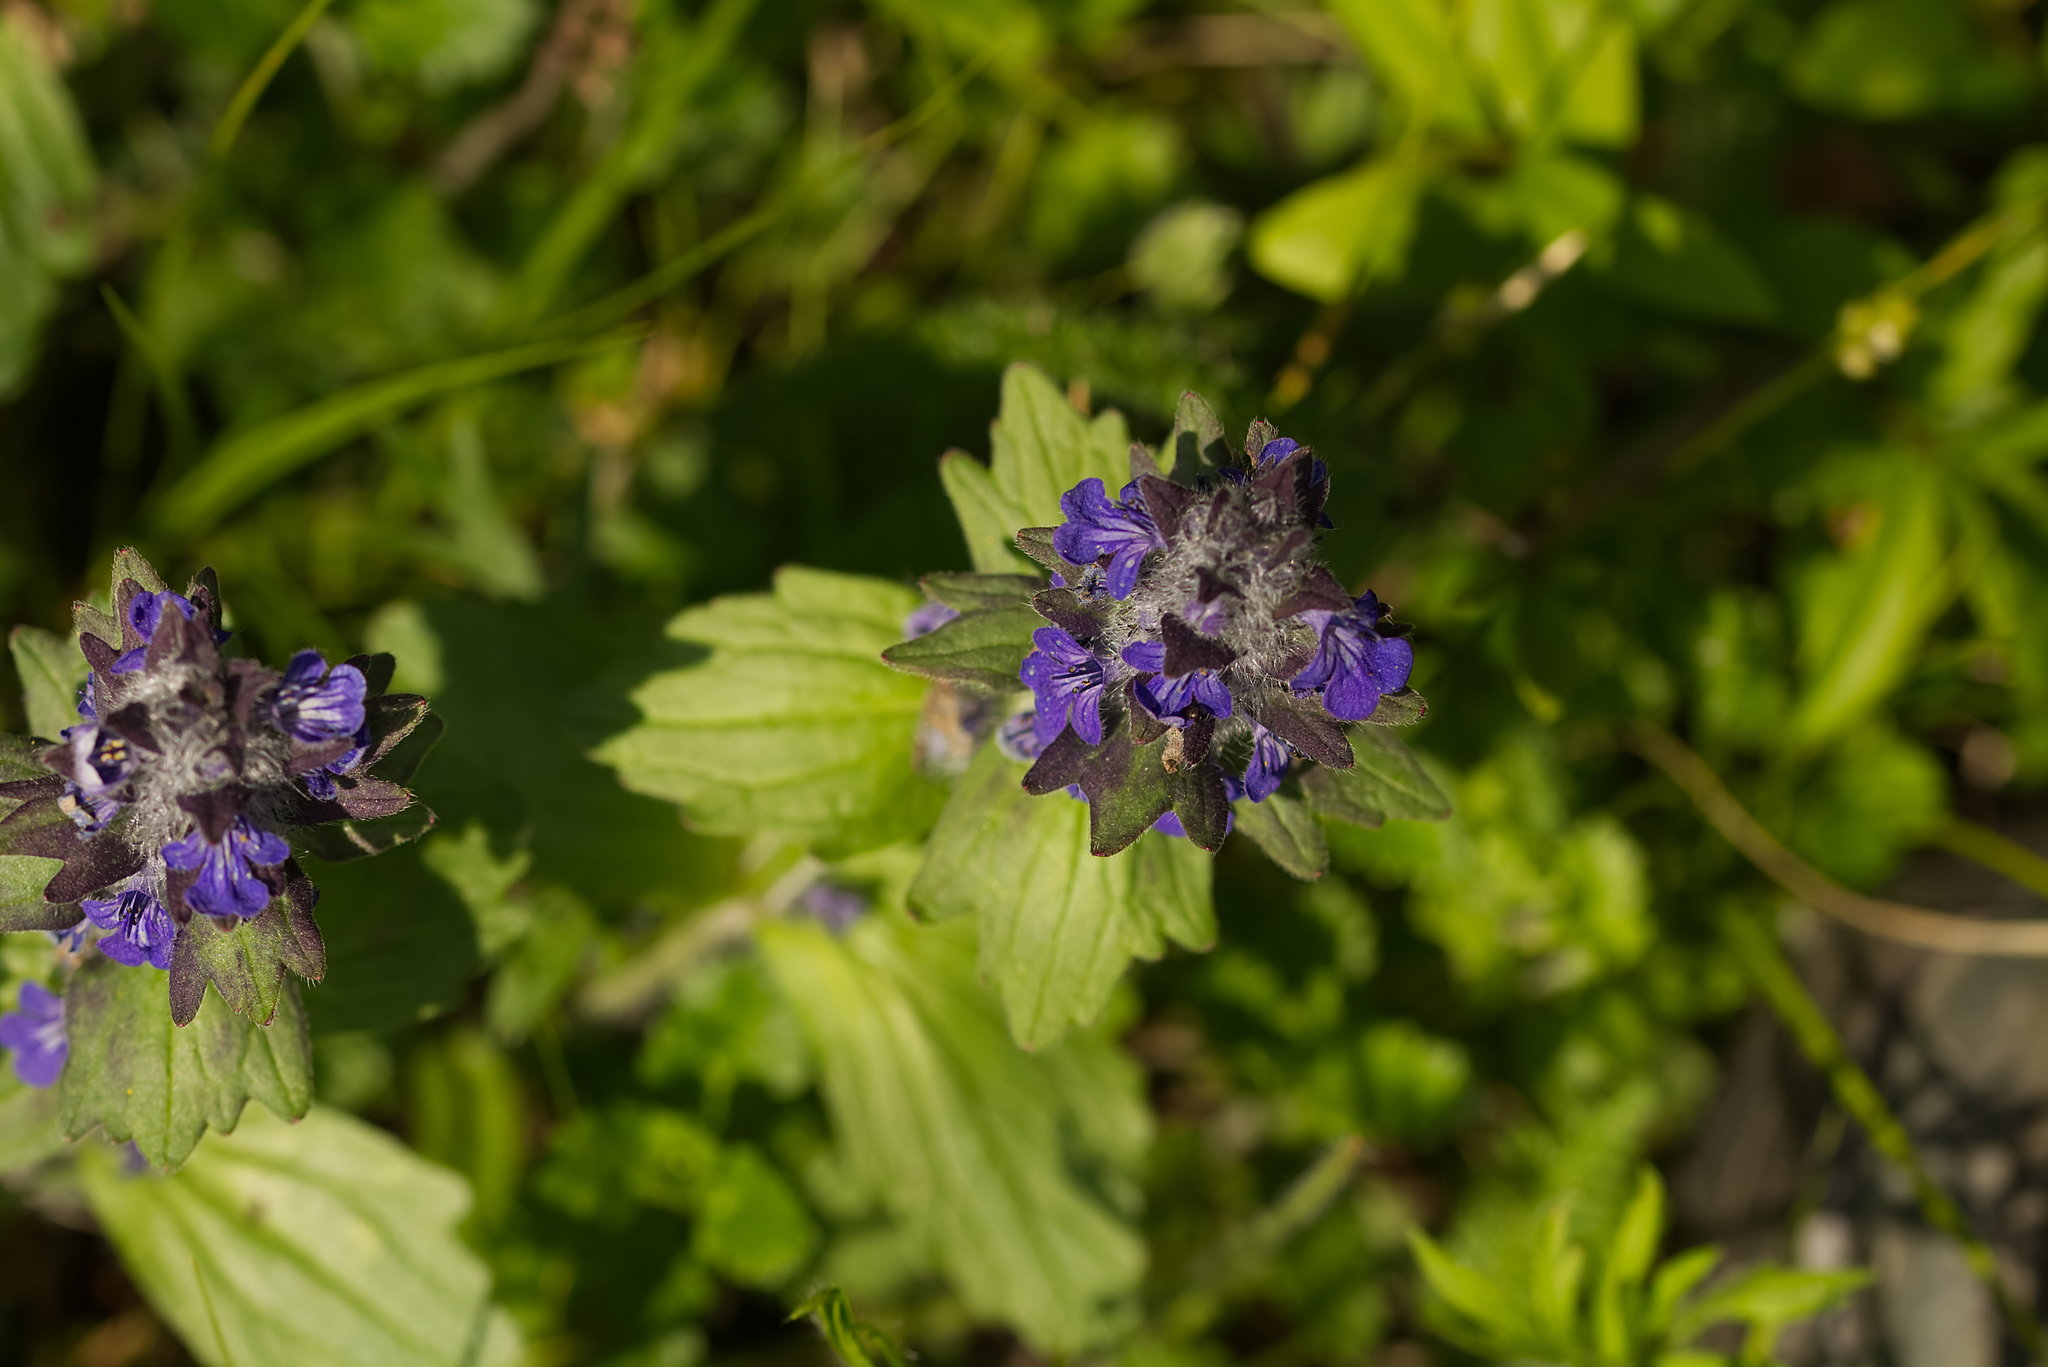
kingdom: Plantae
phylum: Tracheophyta
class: Magnoliopsida
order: Lamiales
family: Lamiaceae
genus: Ajuga
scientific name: Ajuga genevensis
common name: Blue bugle
